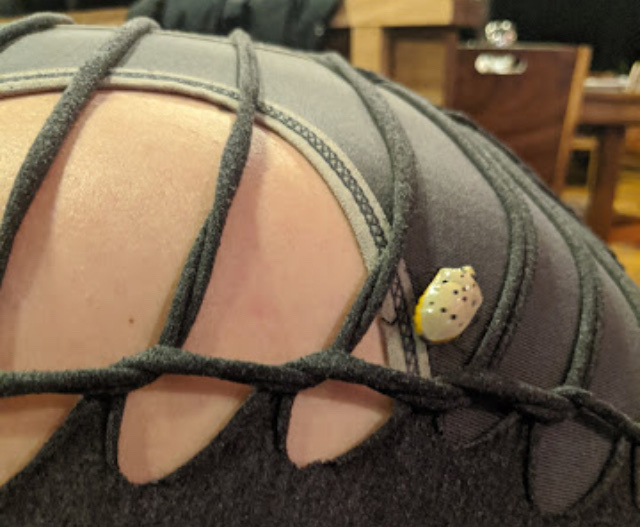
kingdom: Animalia
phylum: Arthropoda
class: Insecta
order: Hemiptera
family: Scutelleridae
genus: Augocoris
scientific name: Augocoris gomesii
